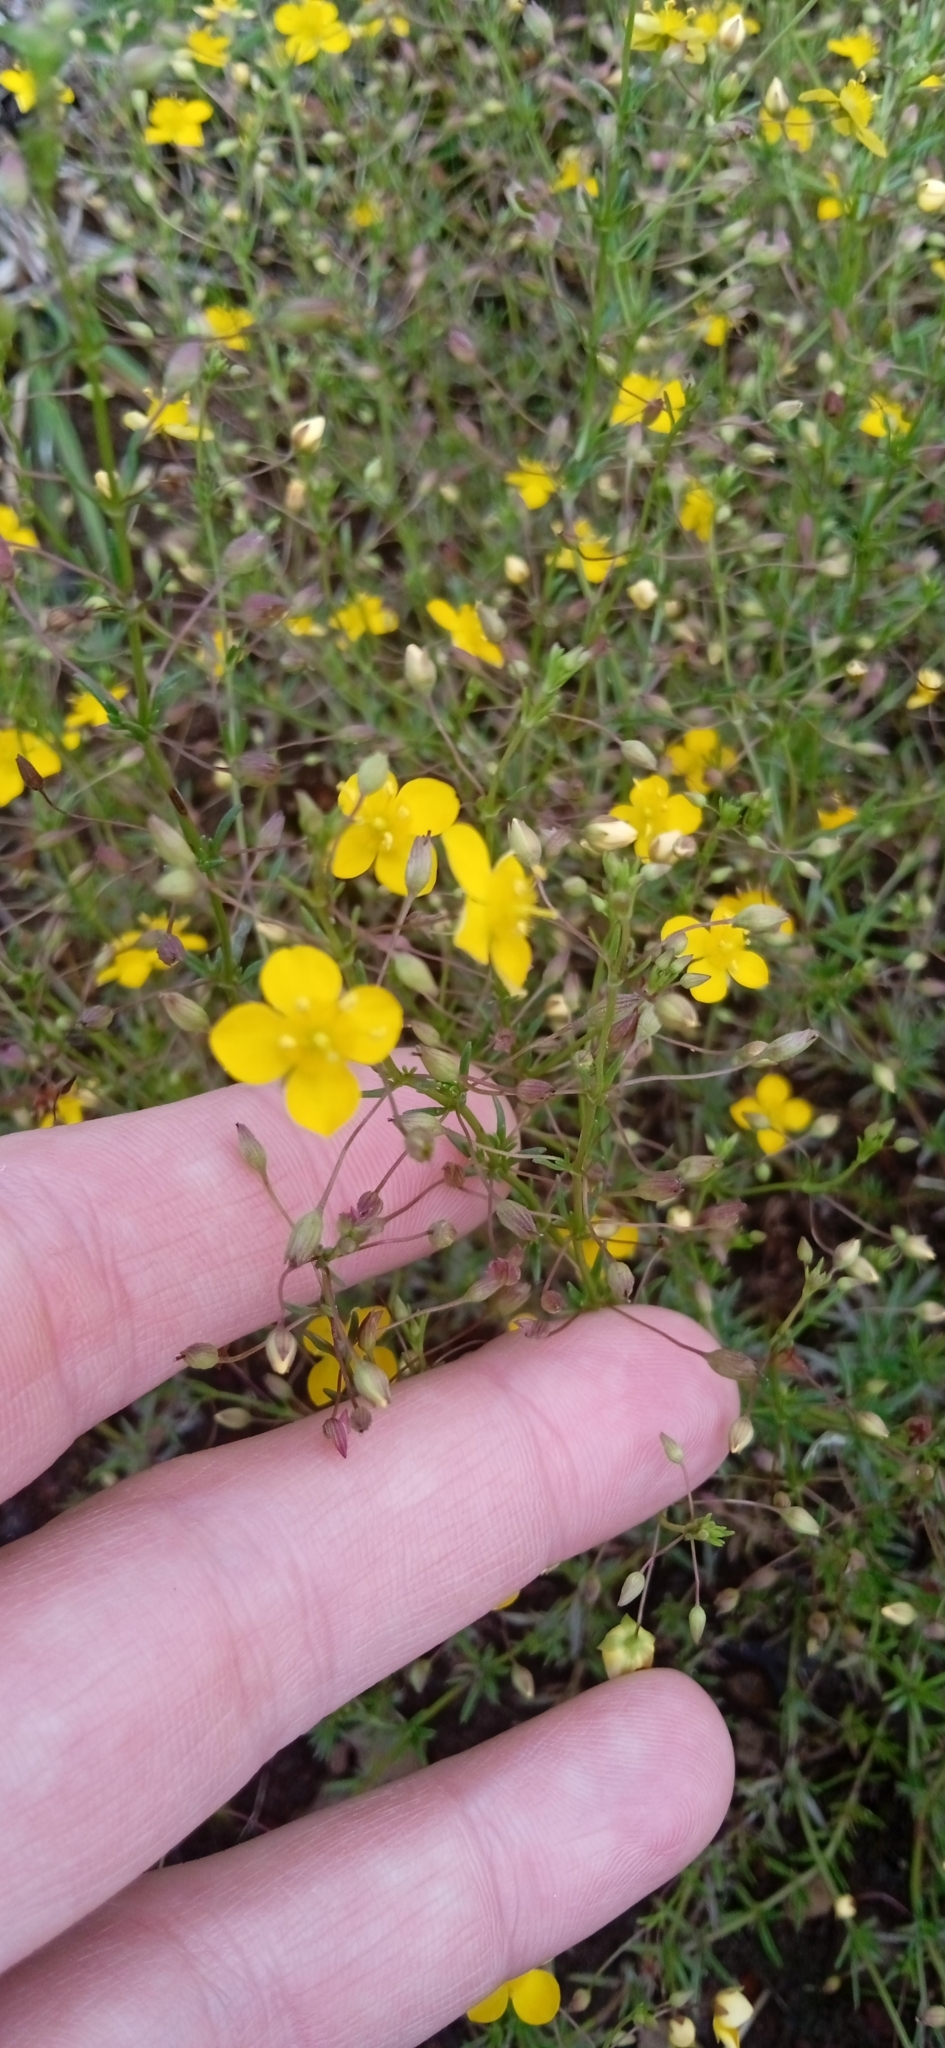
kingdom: Plantae
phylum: Tracheophyta
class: Magnoliopsida
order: Lamiales
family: Plantaginaceae
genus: Scoparia
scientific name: Scoparia montevidensis
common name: Broomwort
